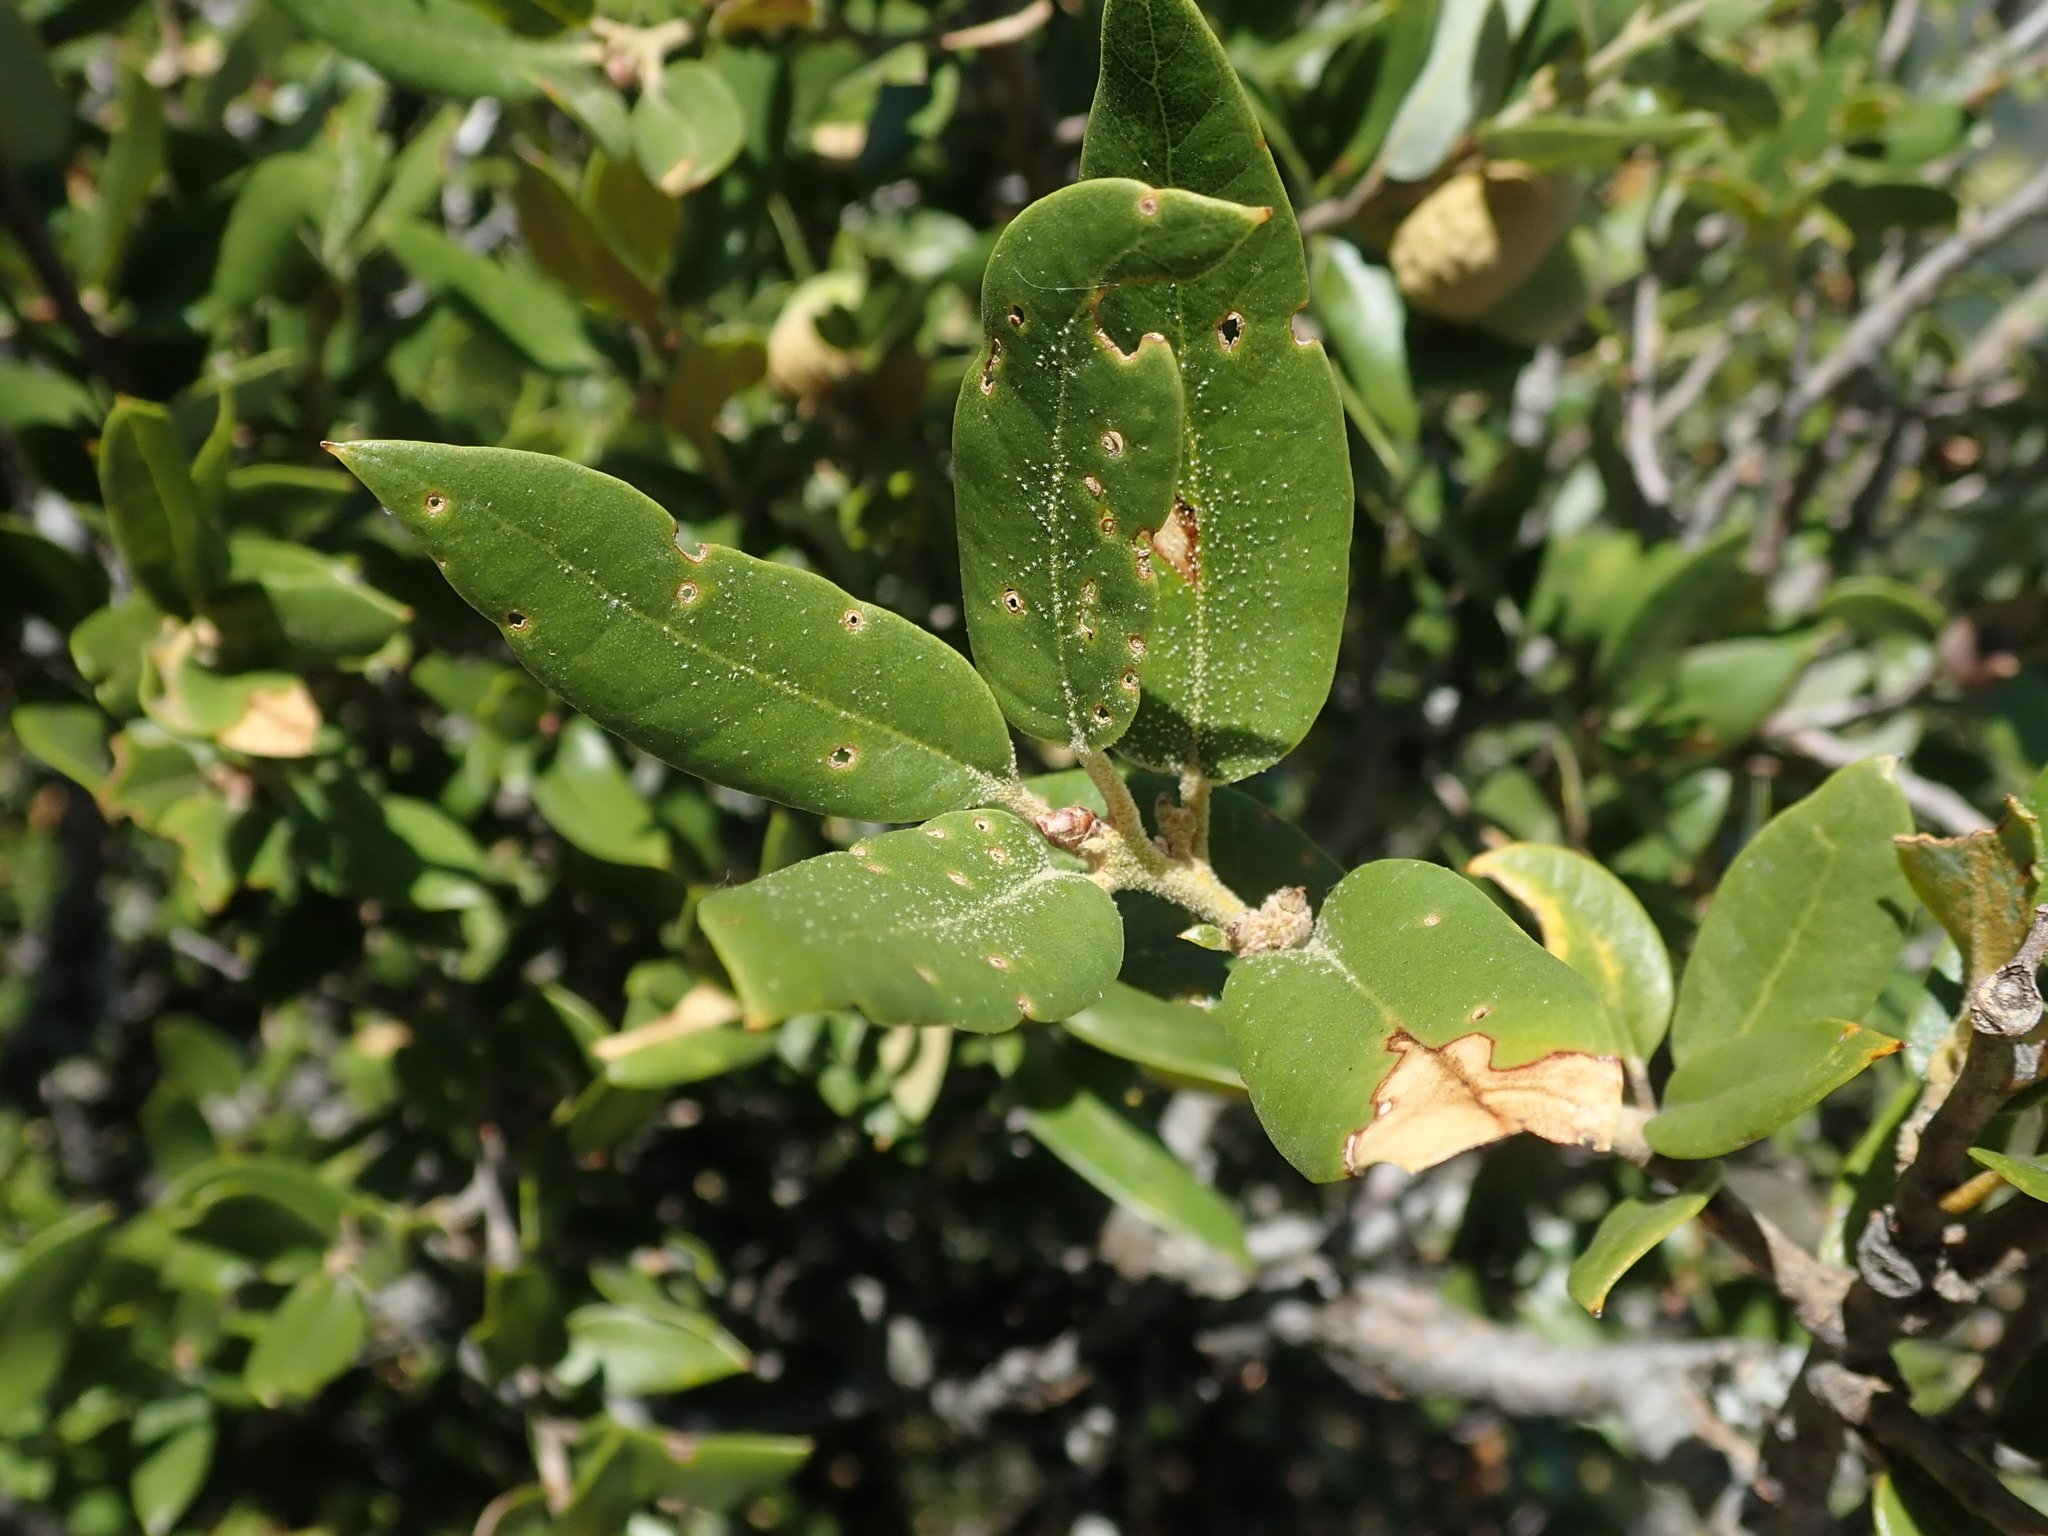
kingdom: Plantae
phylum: Tracheophyta
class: Magnoliopsida
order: Fagales
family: Fagaceae
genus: Quercus
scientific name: Quercus chrysolepis
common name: Canyon live oak
